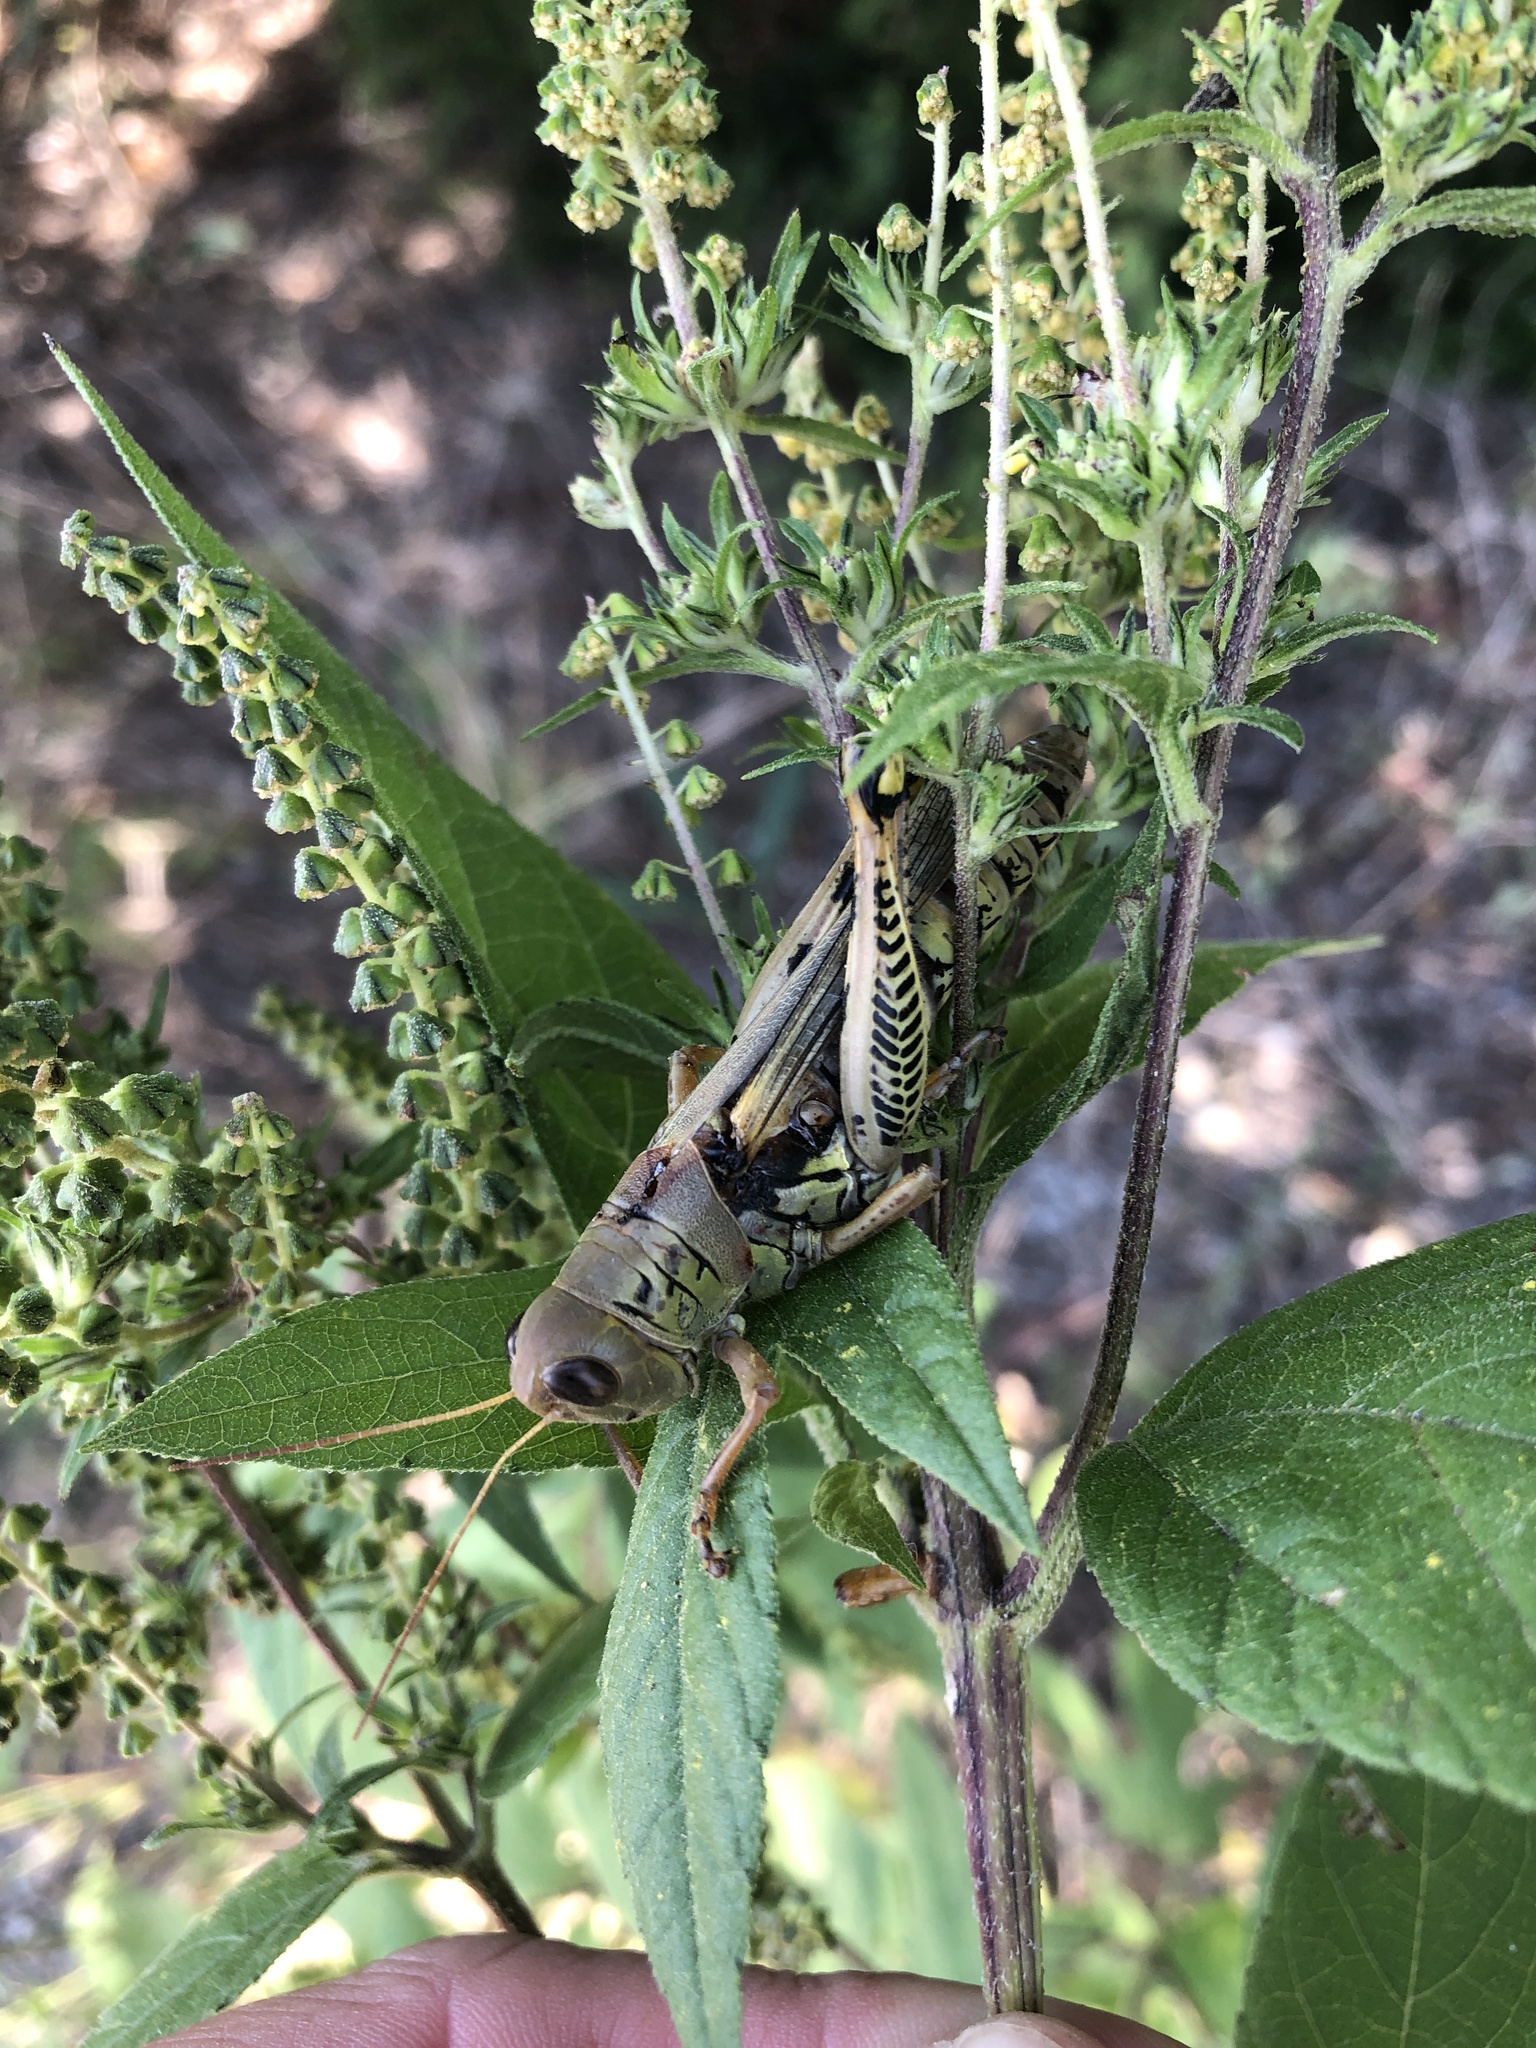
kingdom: Animalia
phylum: Arthropoda
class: Insecta
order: Orthoptera
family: Acrididae
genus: Melanoplus
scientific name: Melanoplus differentialis
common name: Differential grasshopper
